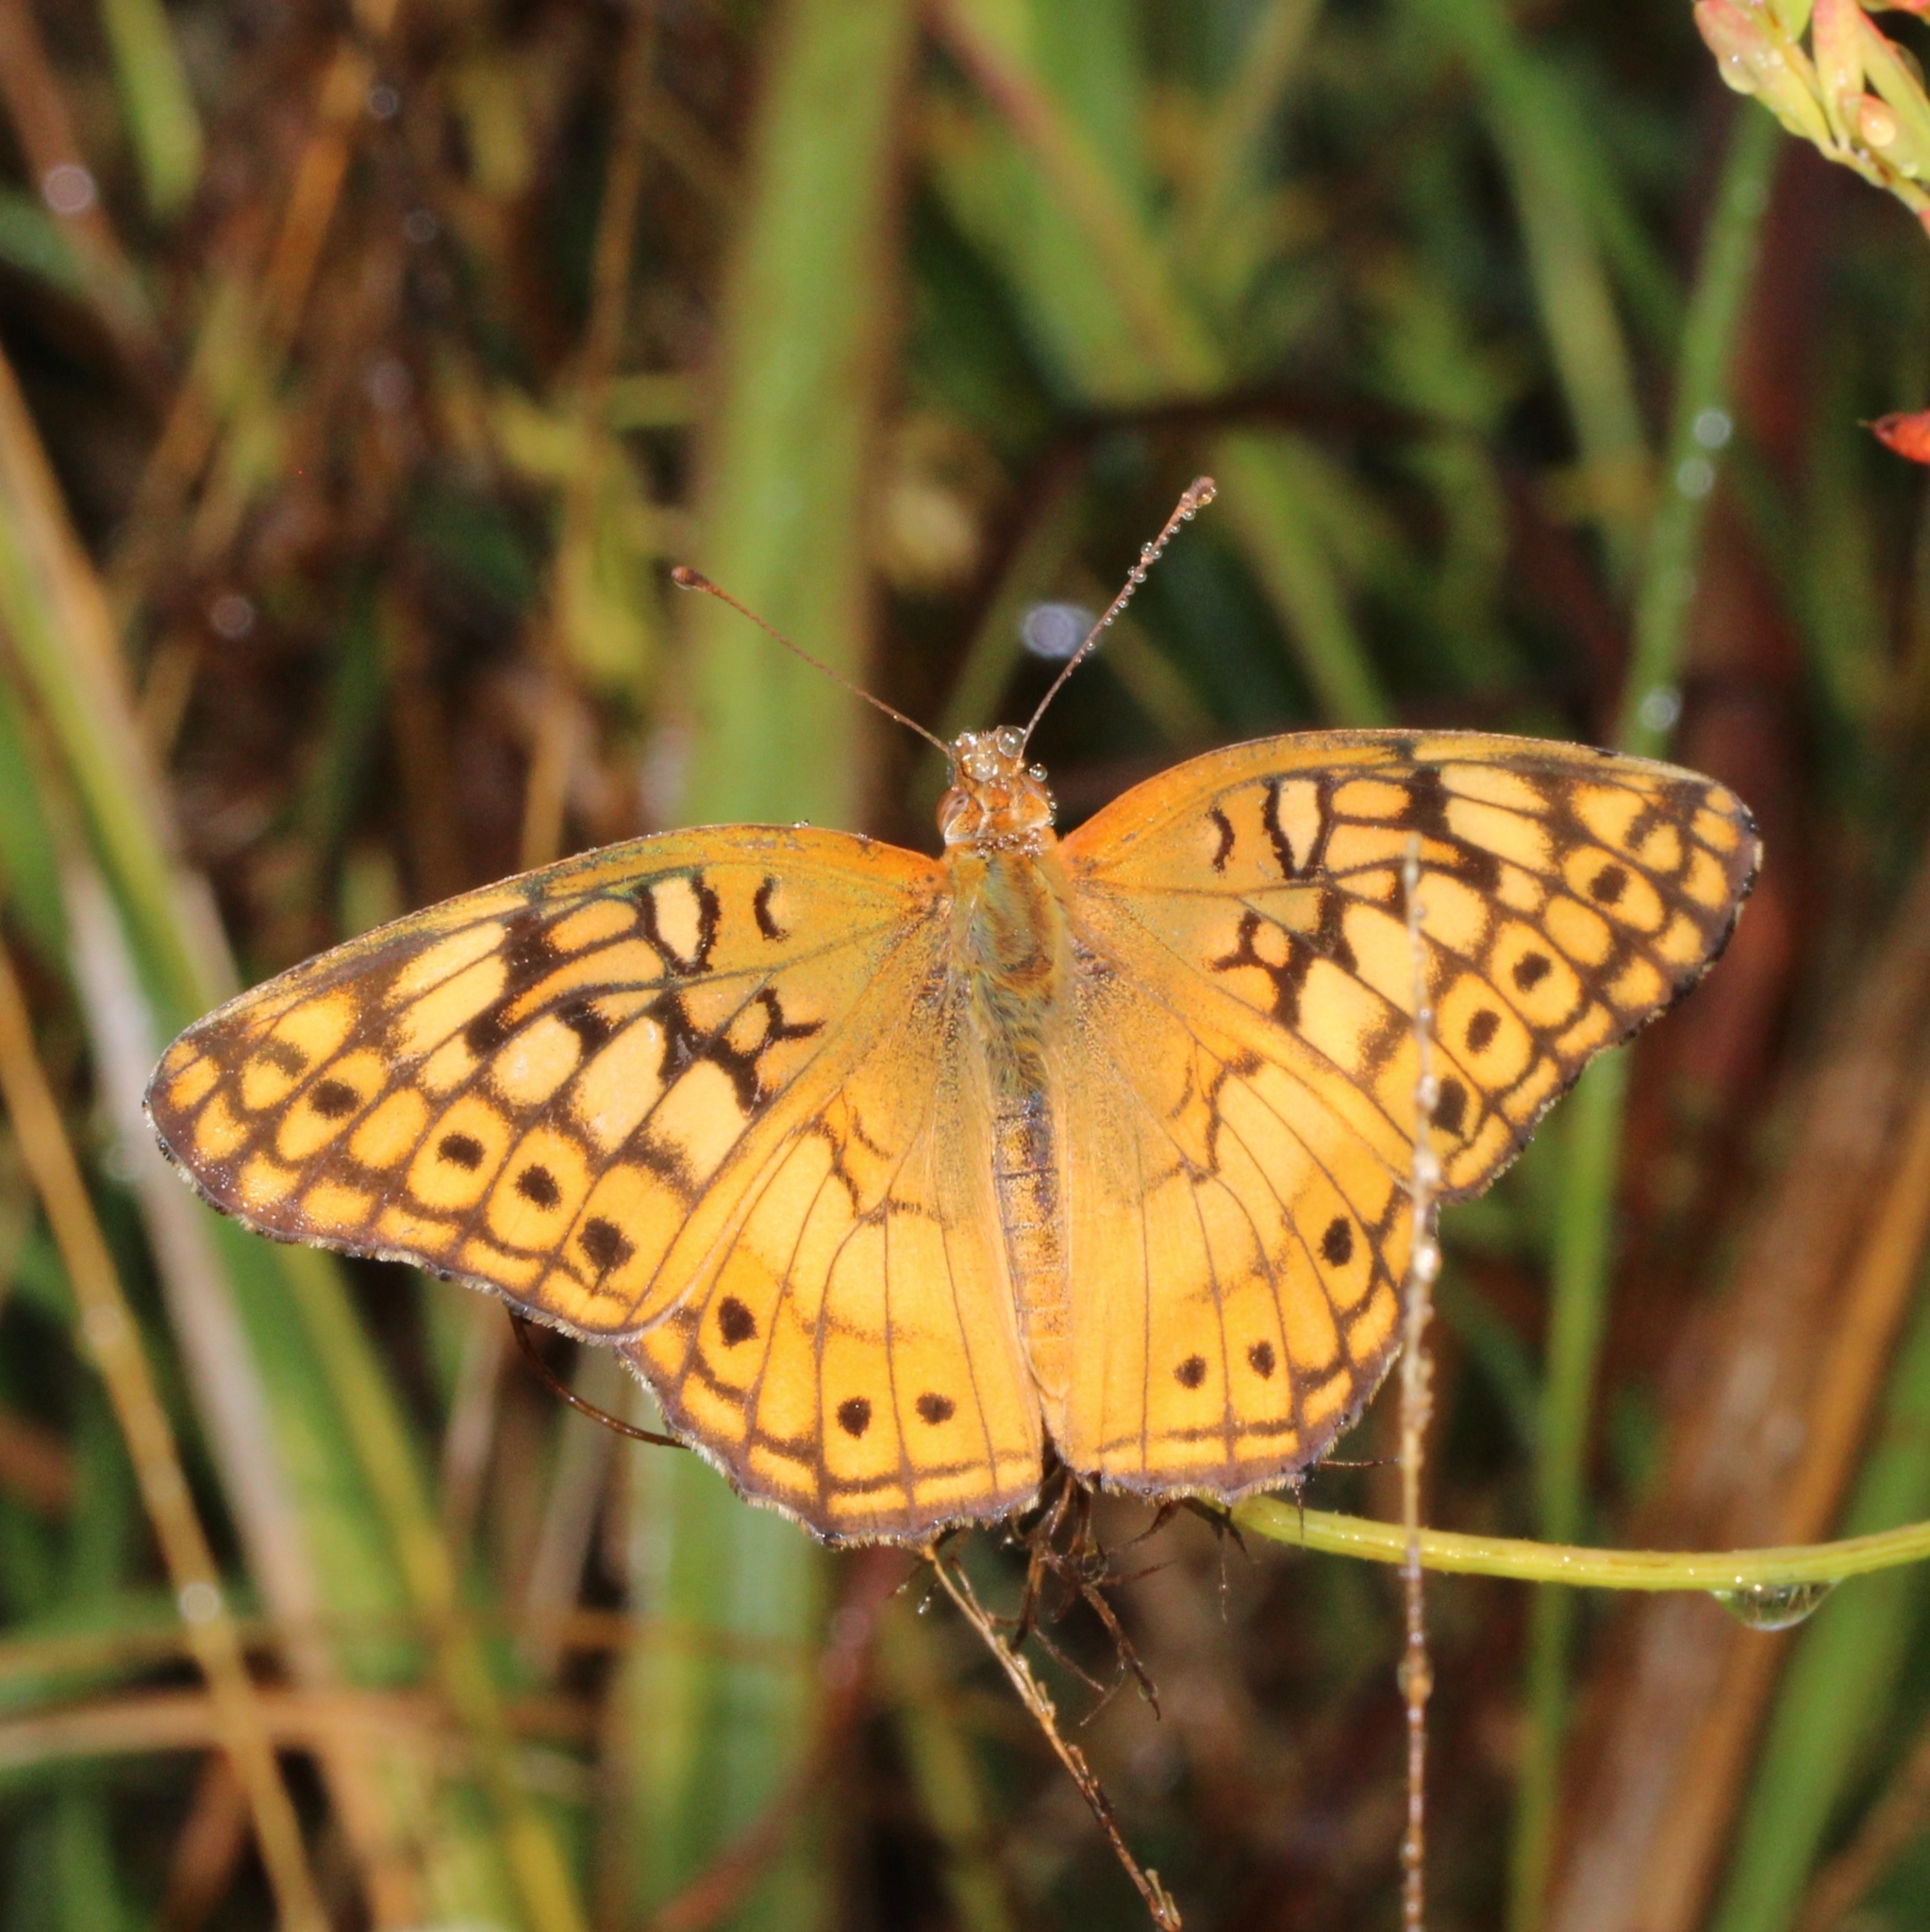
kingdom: Animalia
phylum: Arthropoda
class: Insecta
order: Lepidoptera
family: Nymphalidae
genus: Euptoieta
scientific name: Euptoieta claudia
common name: Variegated fritillary
